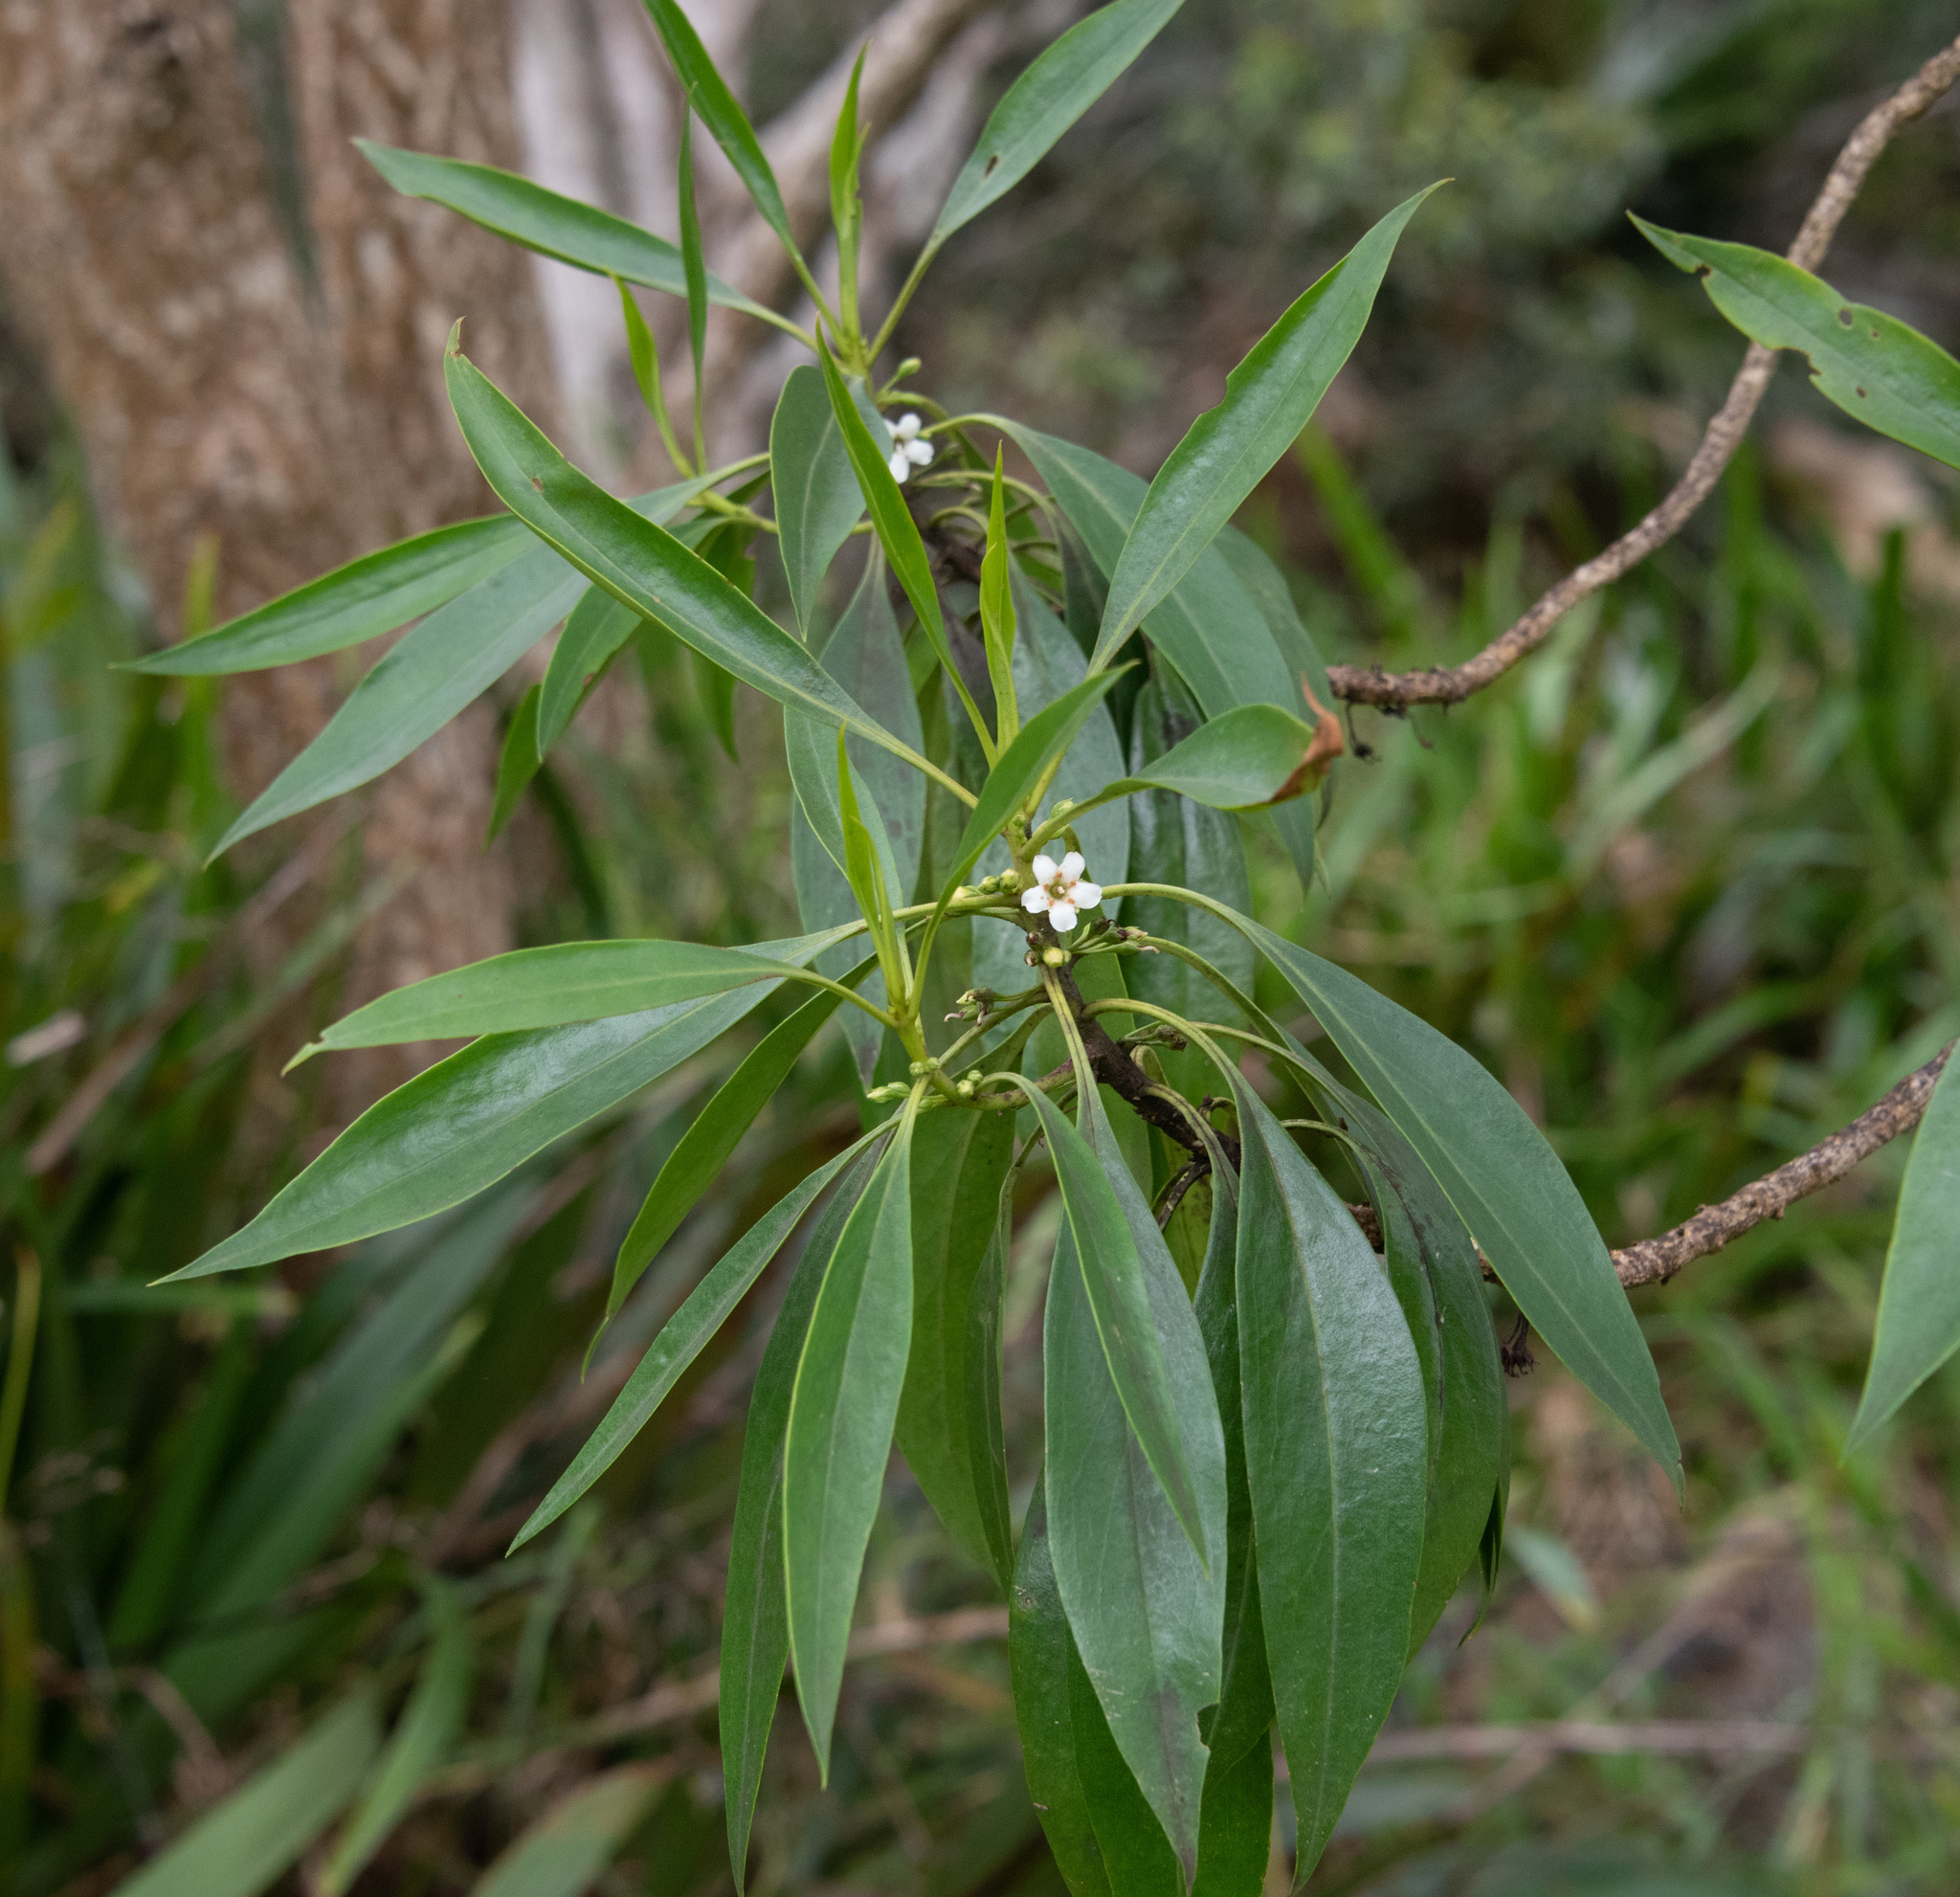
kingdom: Plantae
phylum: Tracheophyta
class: Magnoliopsida
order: Lamiales
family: Scrophulariaceae
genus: Myoporum
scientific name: Myoporum sandwicense
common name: Bastard-sandalwood
